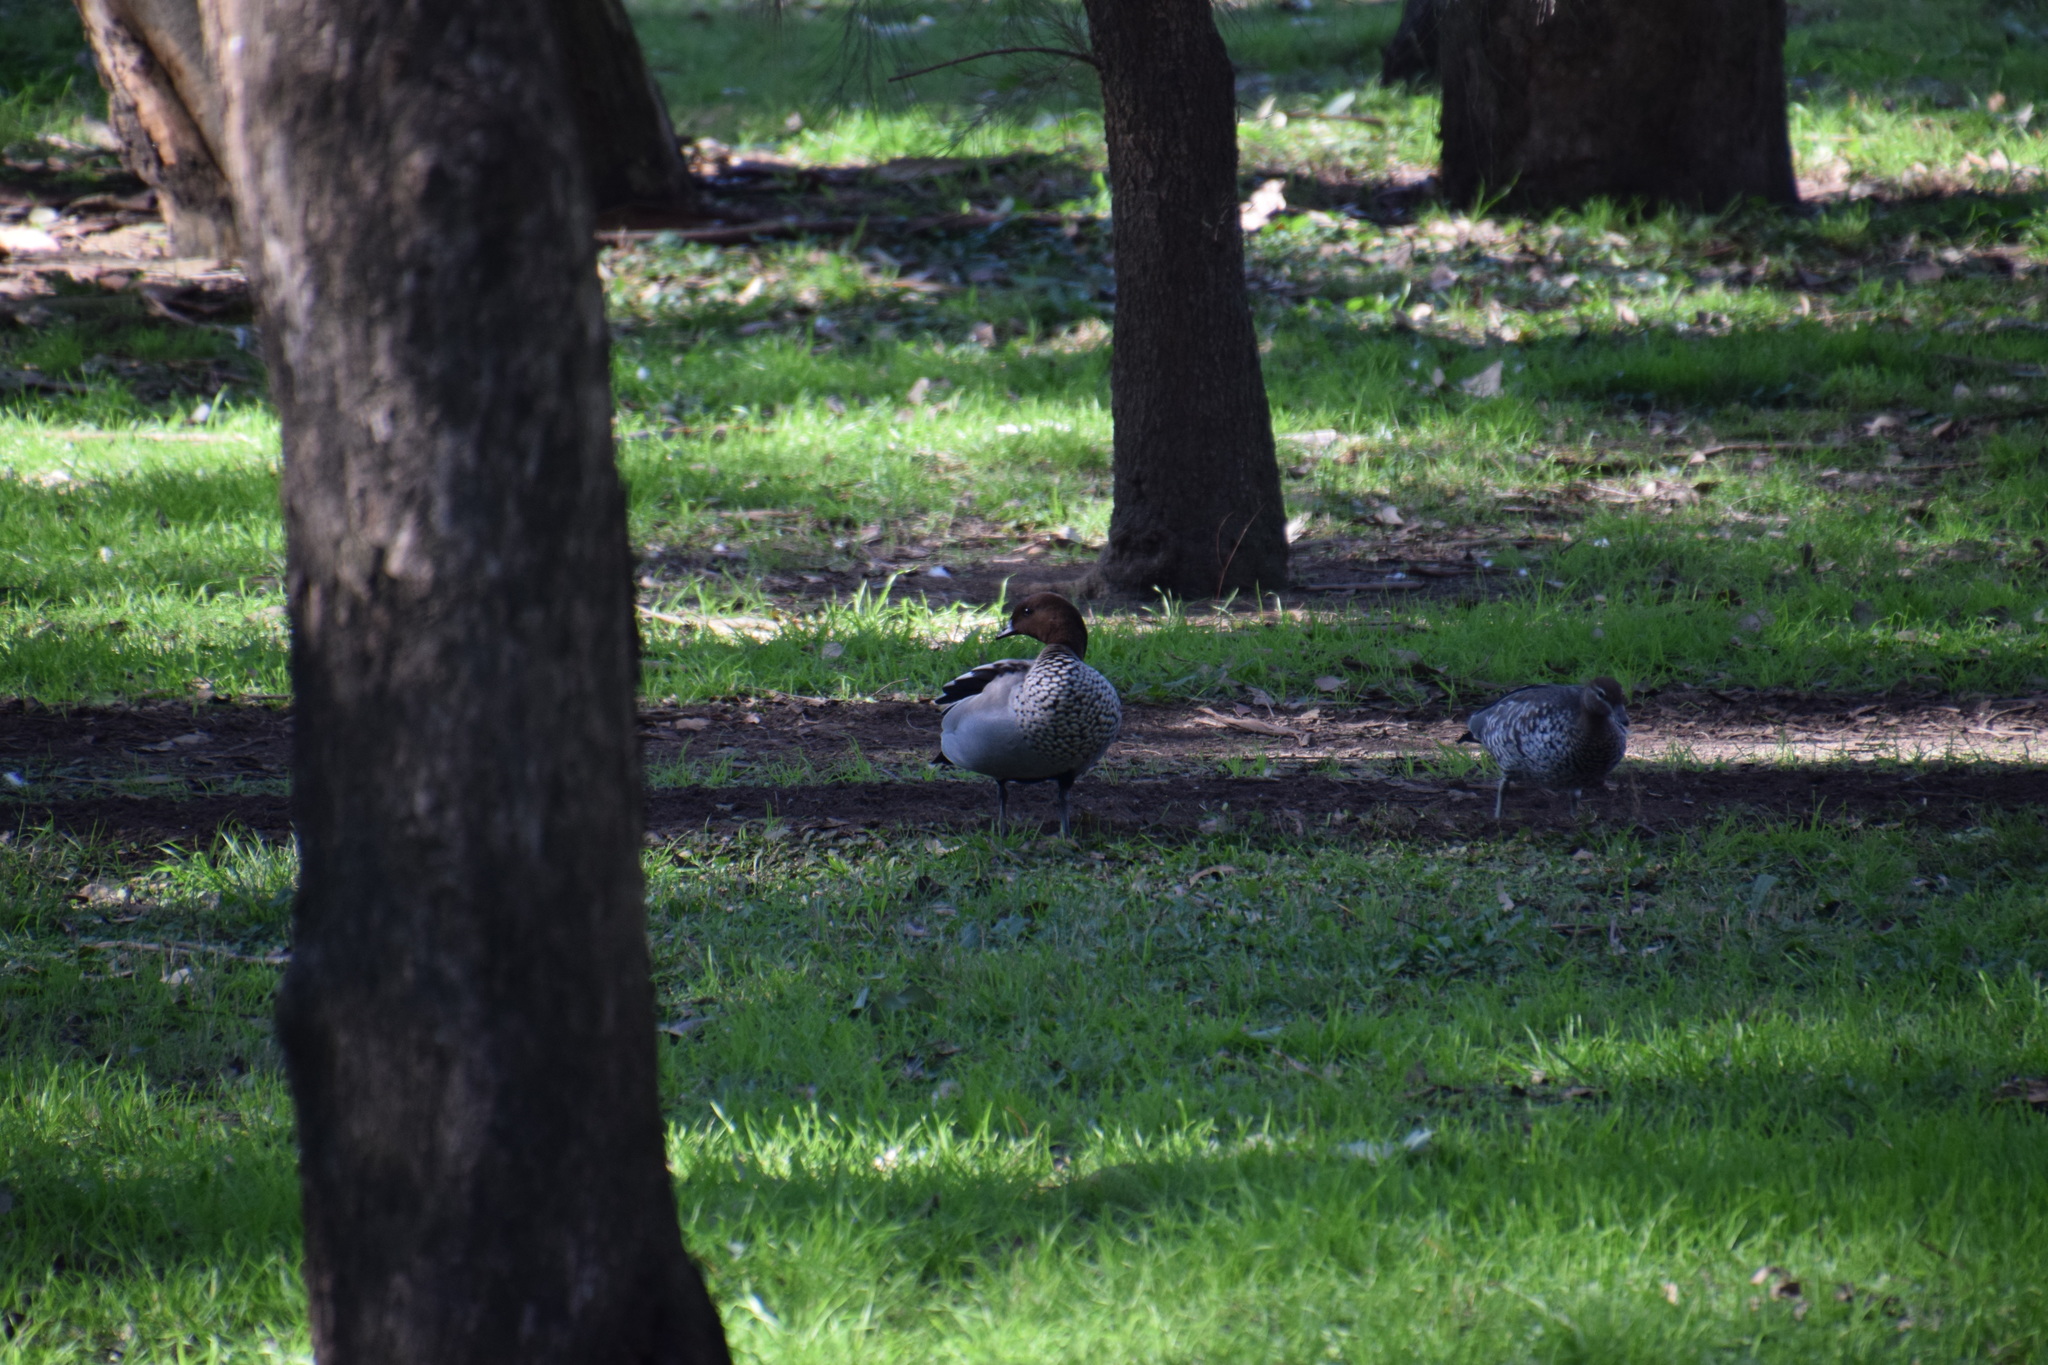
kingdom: Animalia
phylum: Chordata
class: Aves
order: Anseriformes
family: Anatidae
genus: Chenonetta
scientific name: Chenonetta jubata
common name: Maned duck
